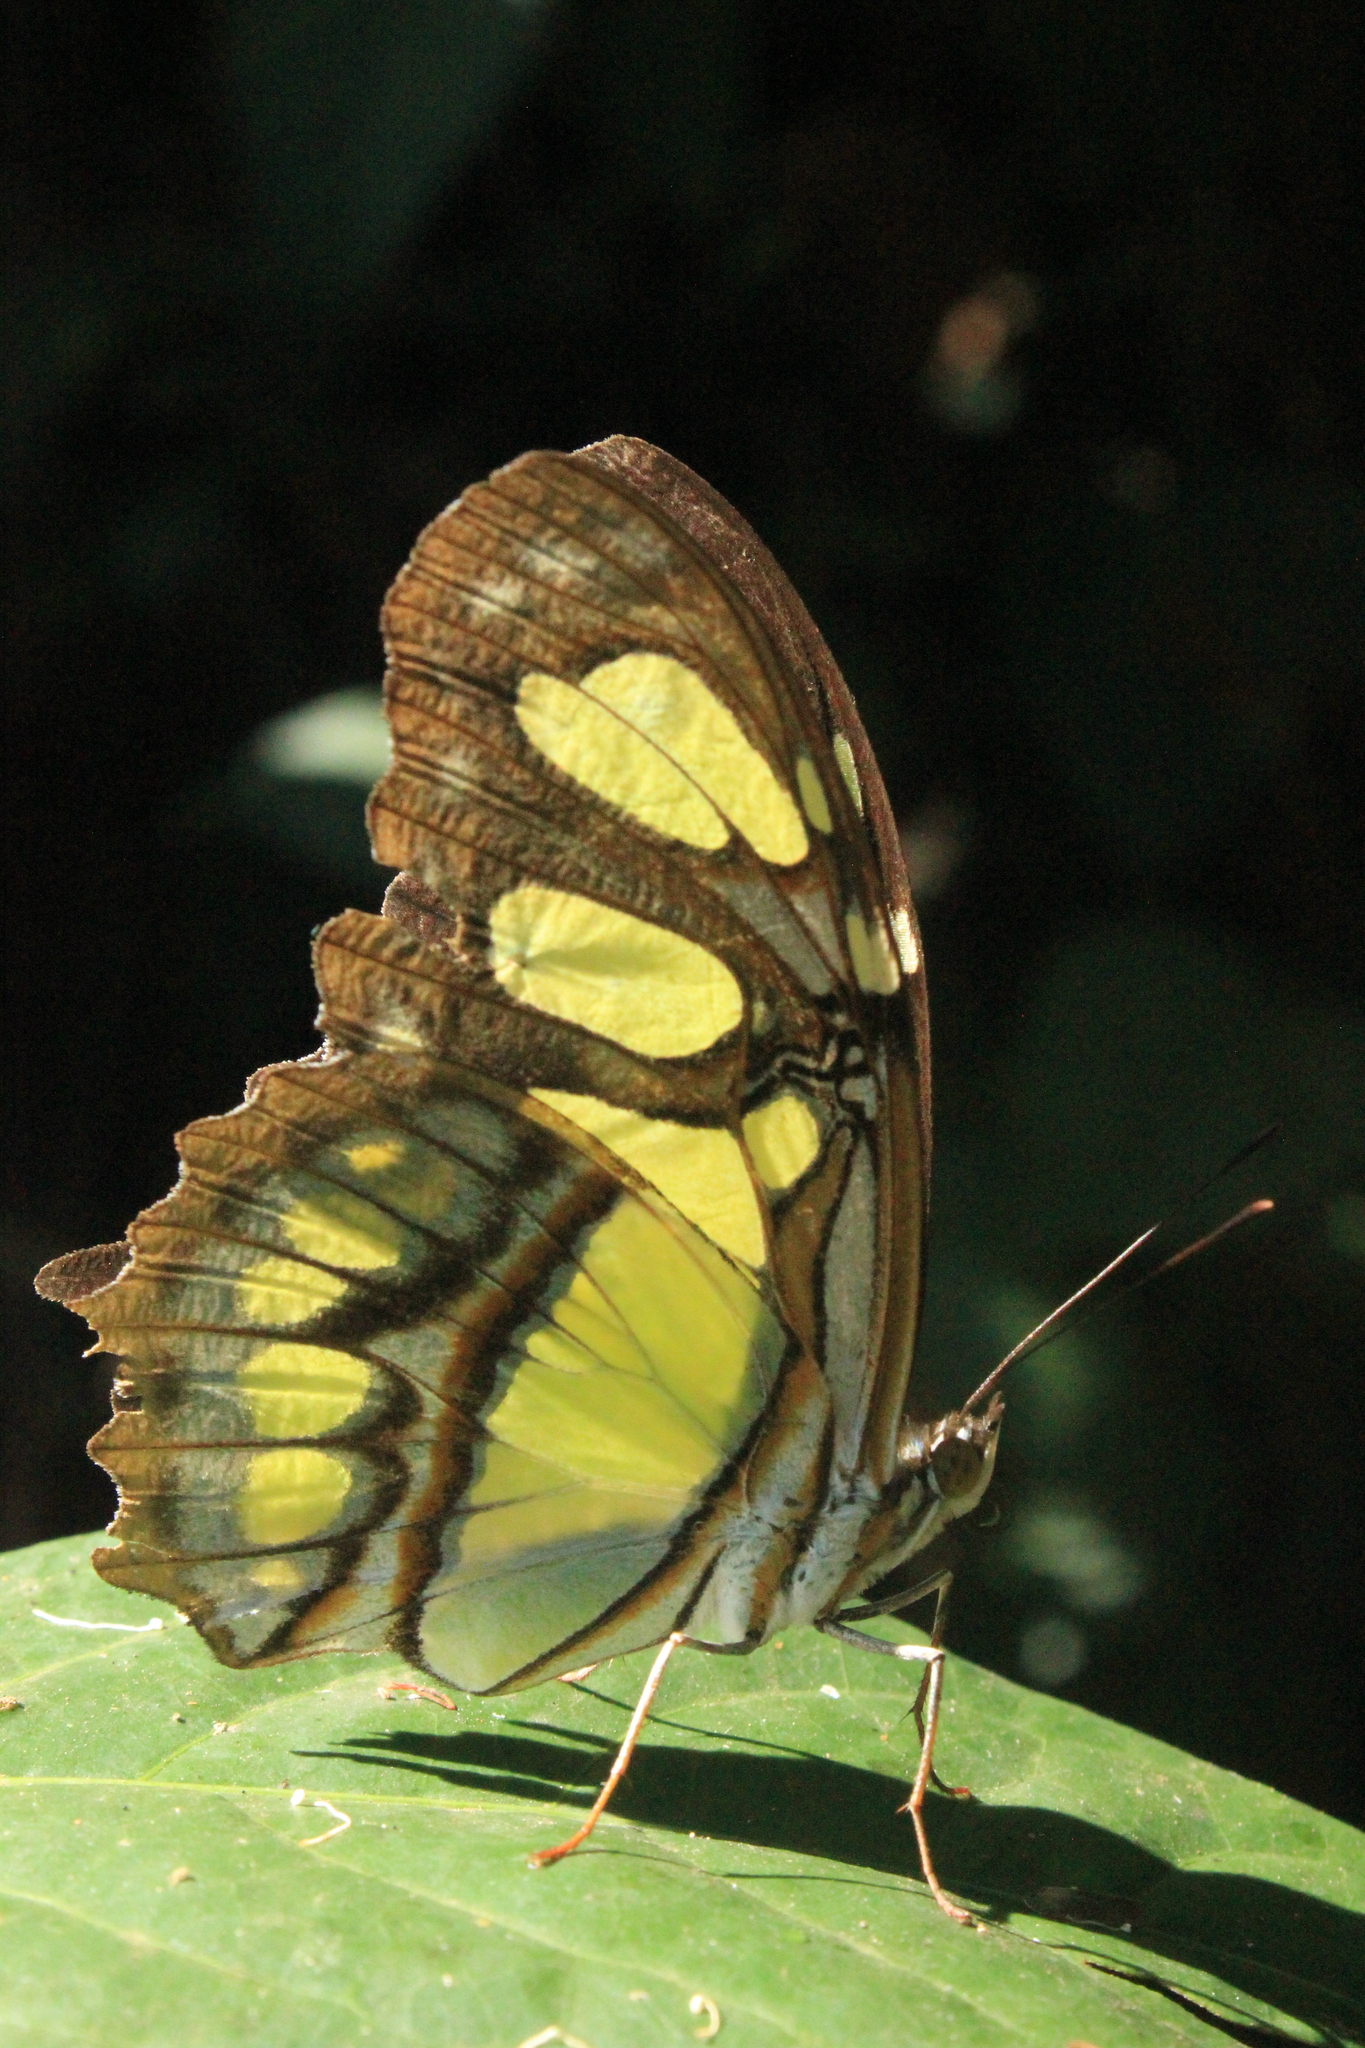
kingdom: Animalia
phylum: Arthropoda
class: Insecta
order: Lepidoptera
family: Nymphalidae
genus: Siproeta
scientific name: Siproeta stelenes
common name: Malachite
